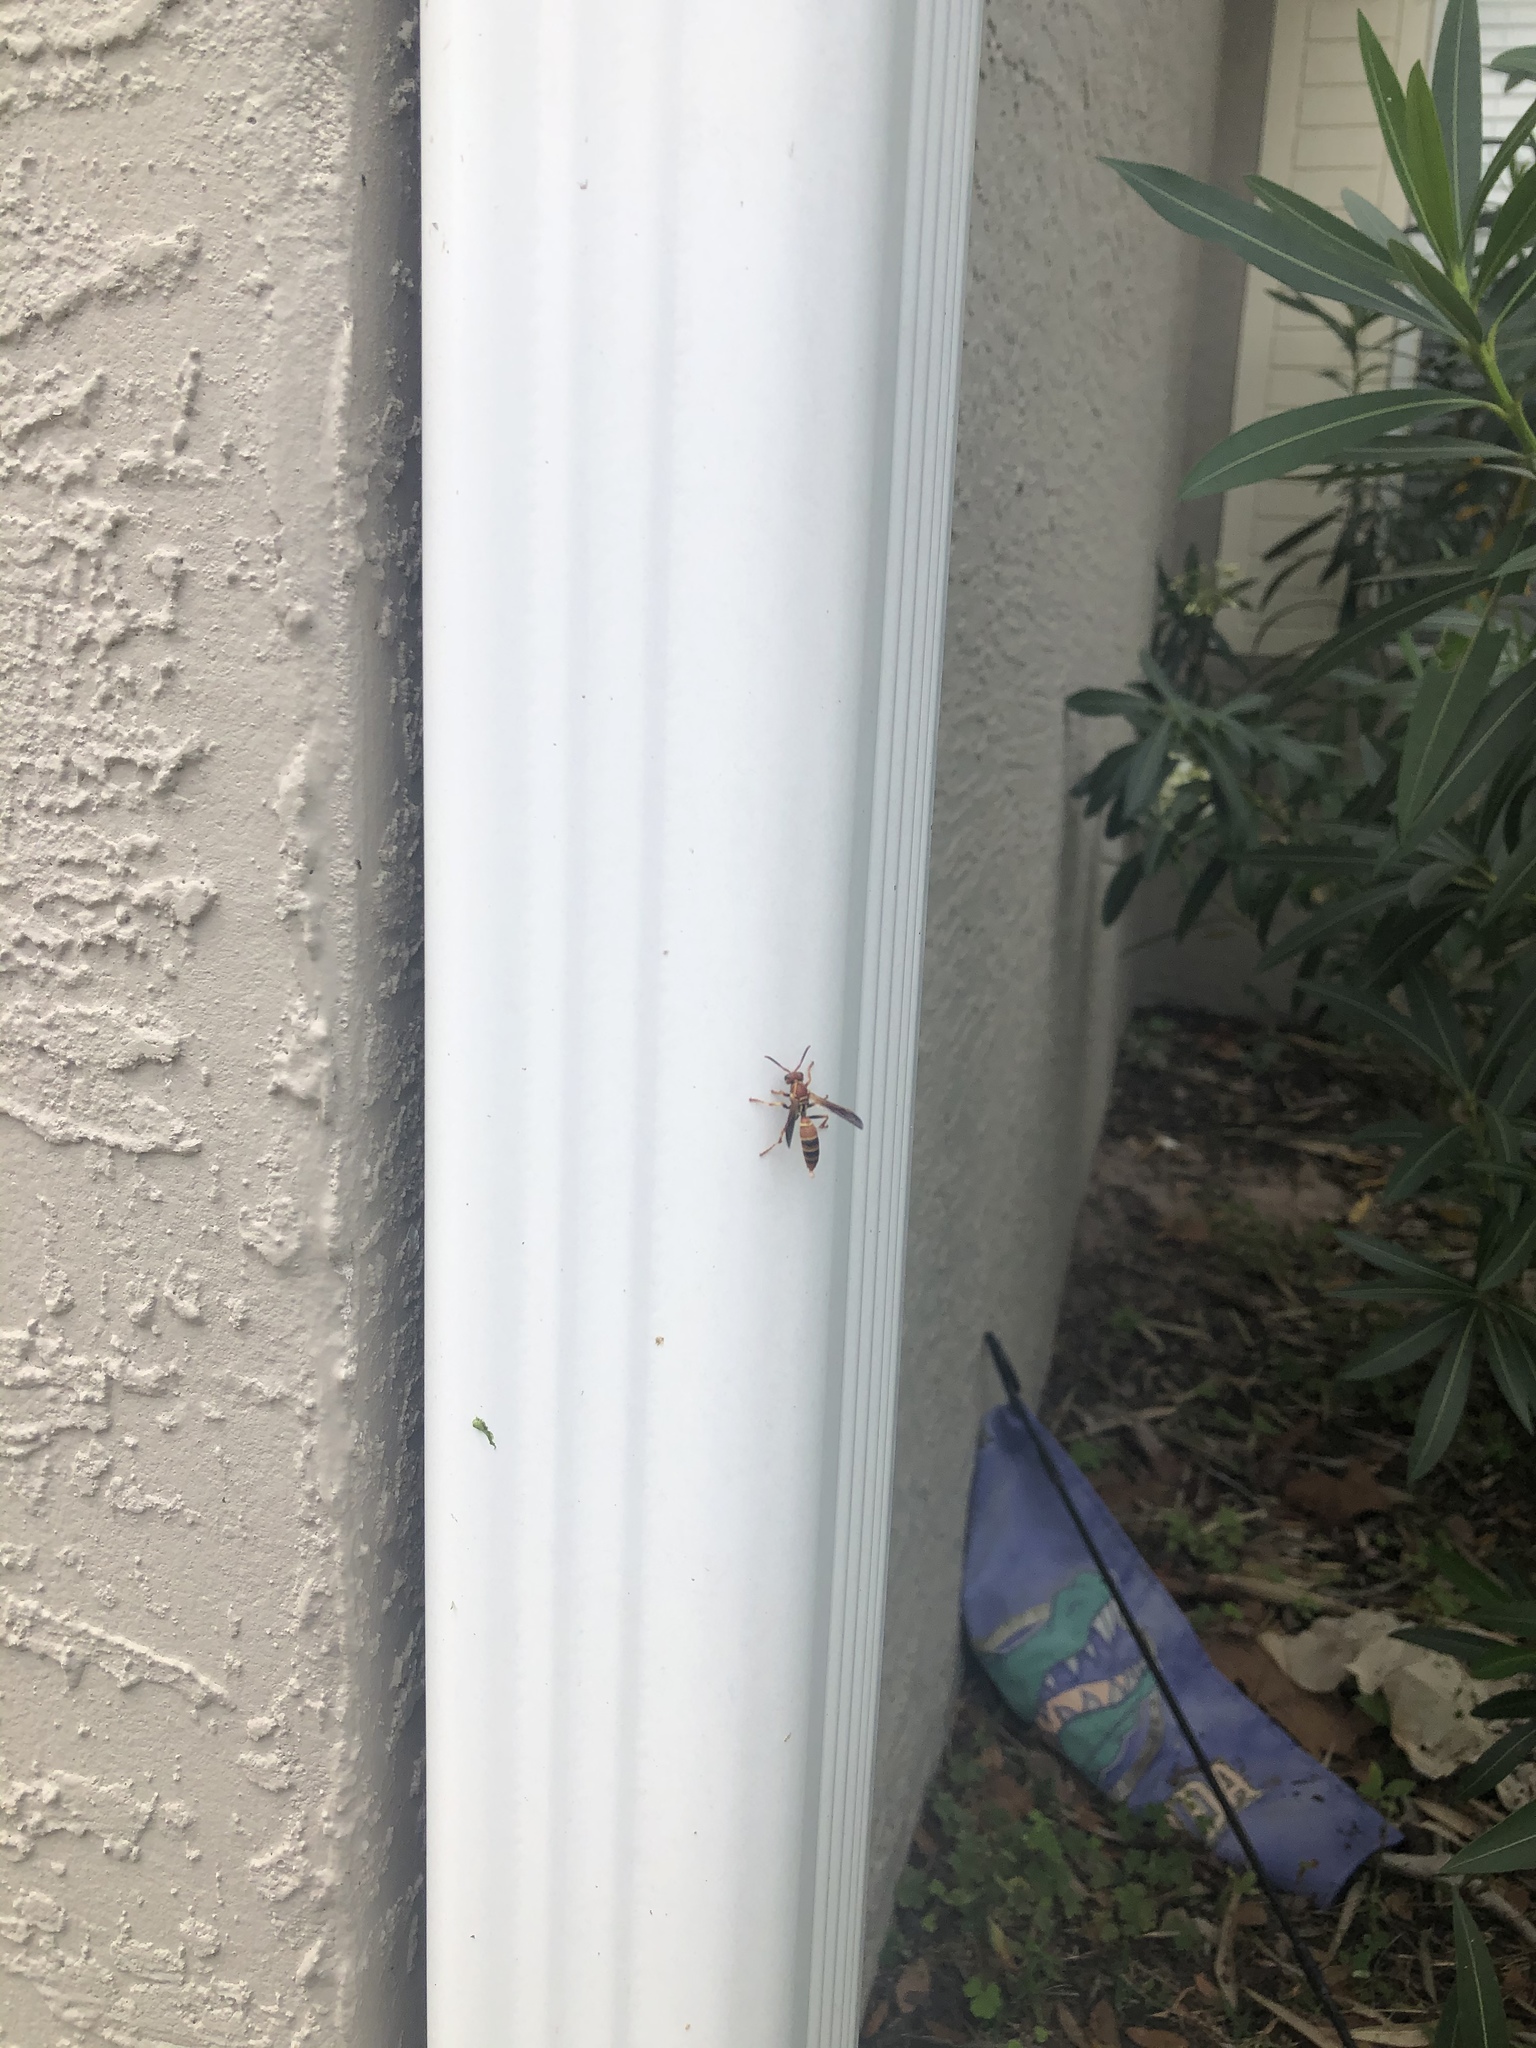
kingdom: Animalia
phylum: Arthropoda
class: Insecta
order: Hymenoptera
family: Vespidae
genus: Fuscopolistes
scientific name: Fuscopolistes
